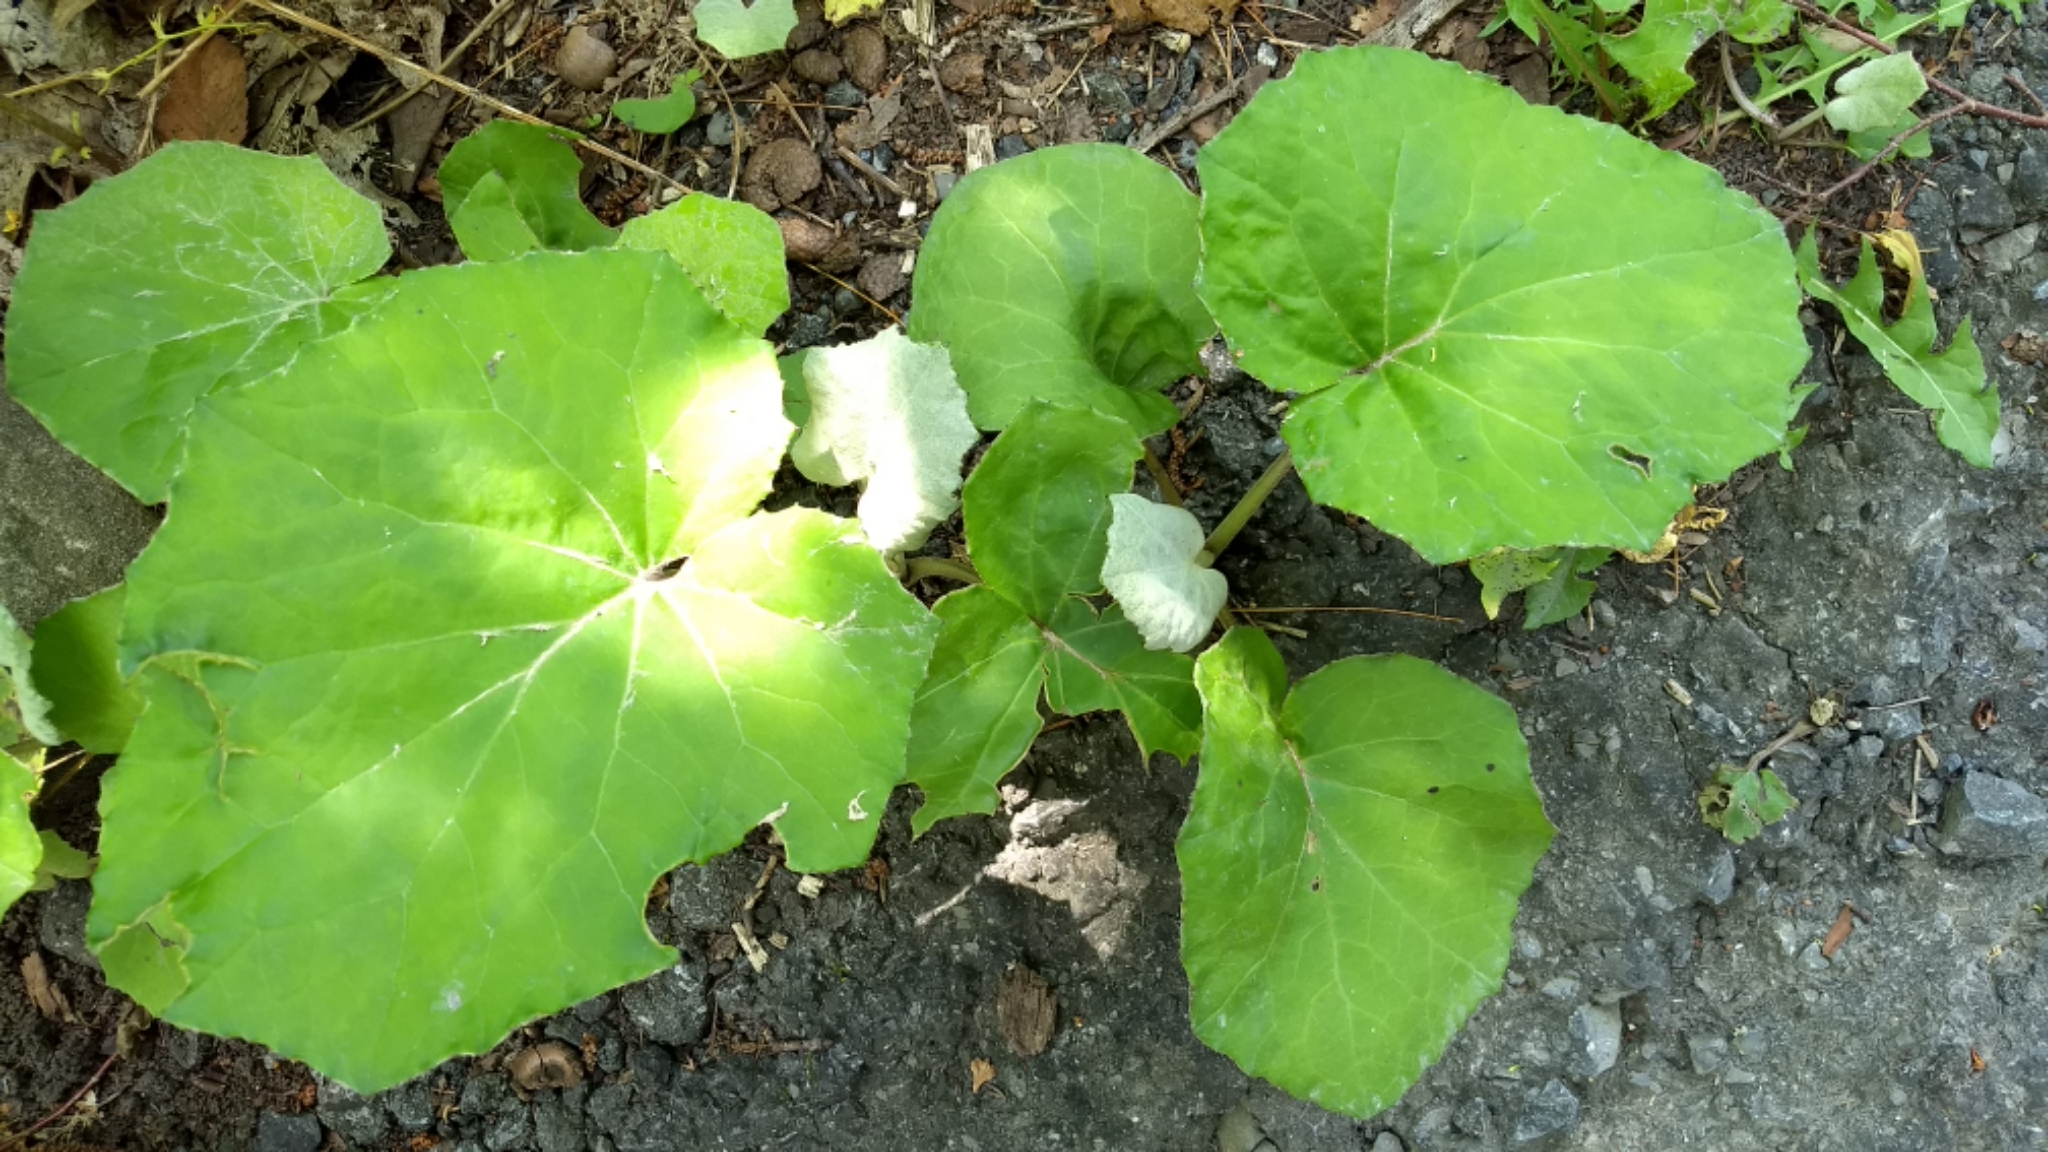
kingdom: Plantae
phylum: Tracheophyta
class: Magnoliopsida
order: Asterales
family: Asteraceae
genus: Tussilago
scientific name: Tussilago farfara
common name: Coltsfoot
